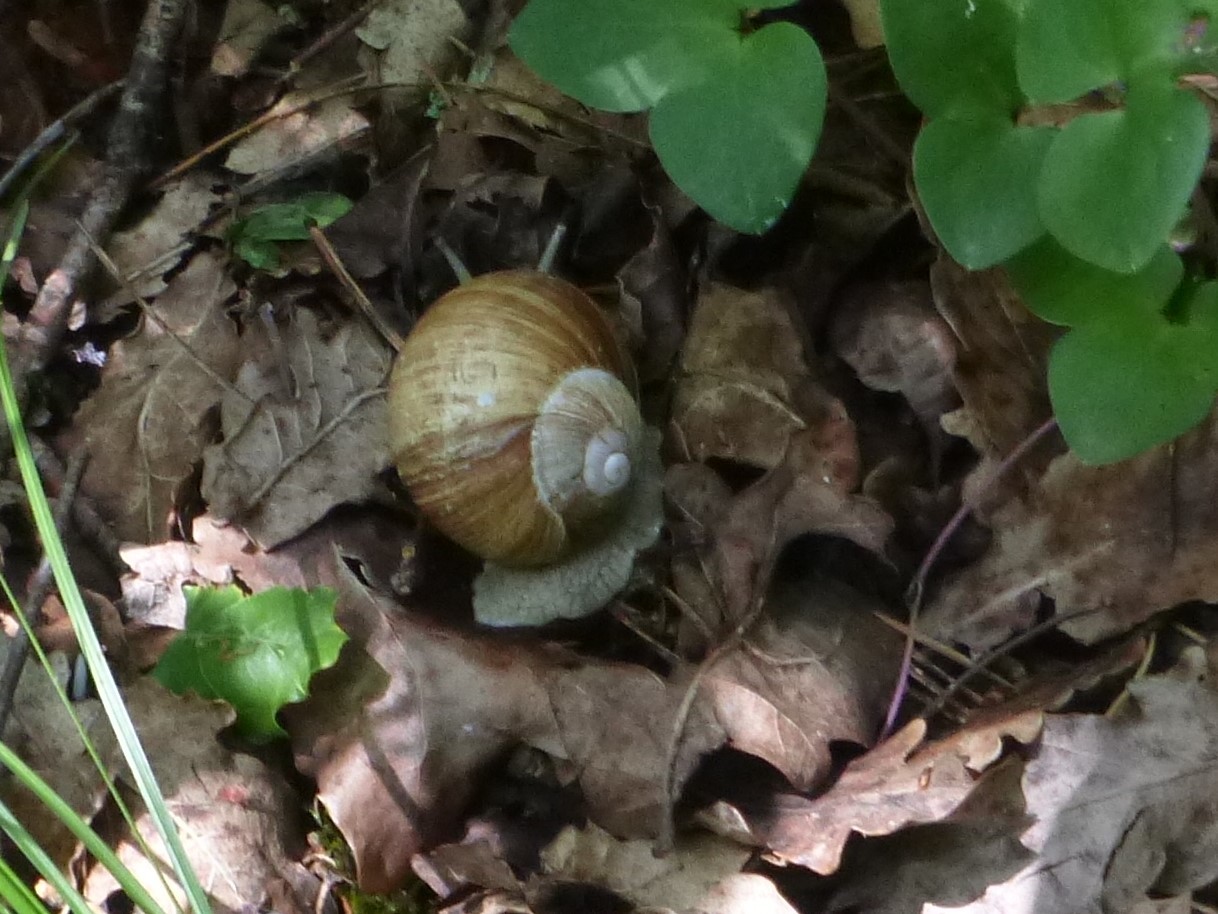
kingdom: Animalia
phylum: Mollusca
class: Gastropoda
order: Stylommatophora
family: Helicidae
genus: Helix
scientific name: Helix pomatia
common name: Roman snail
